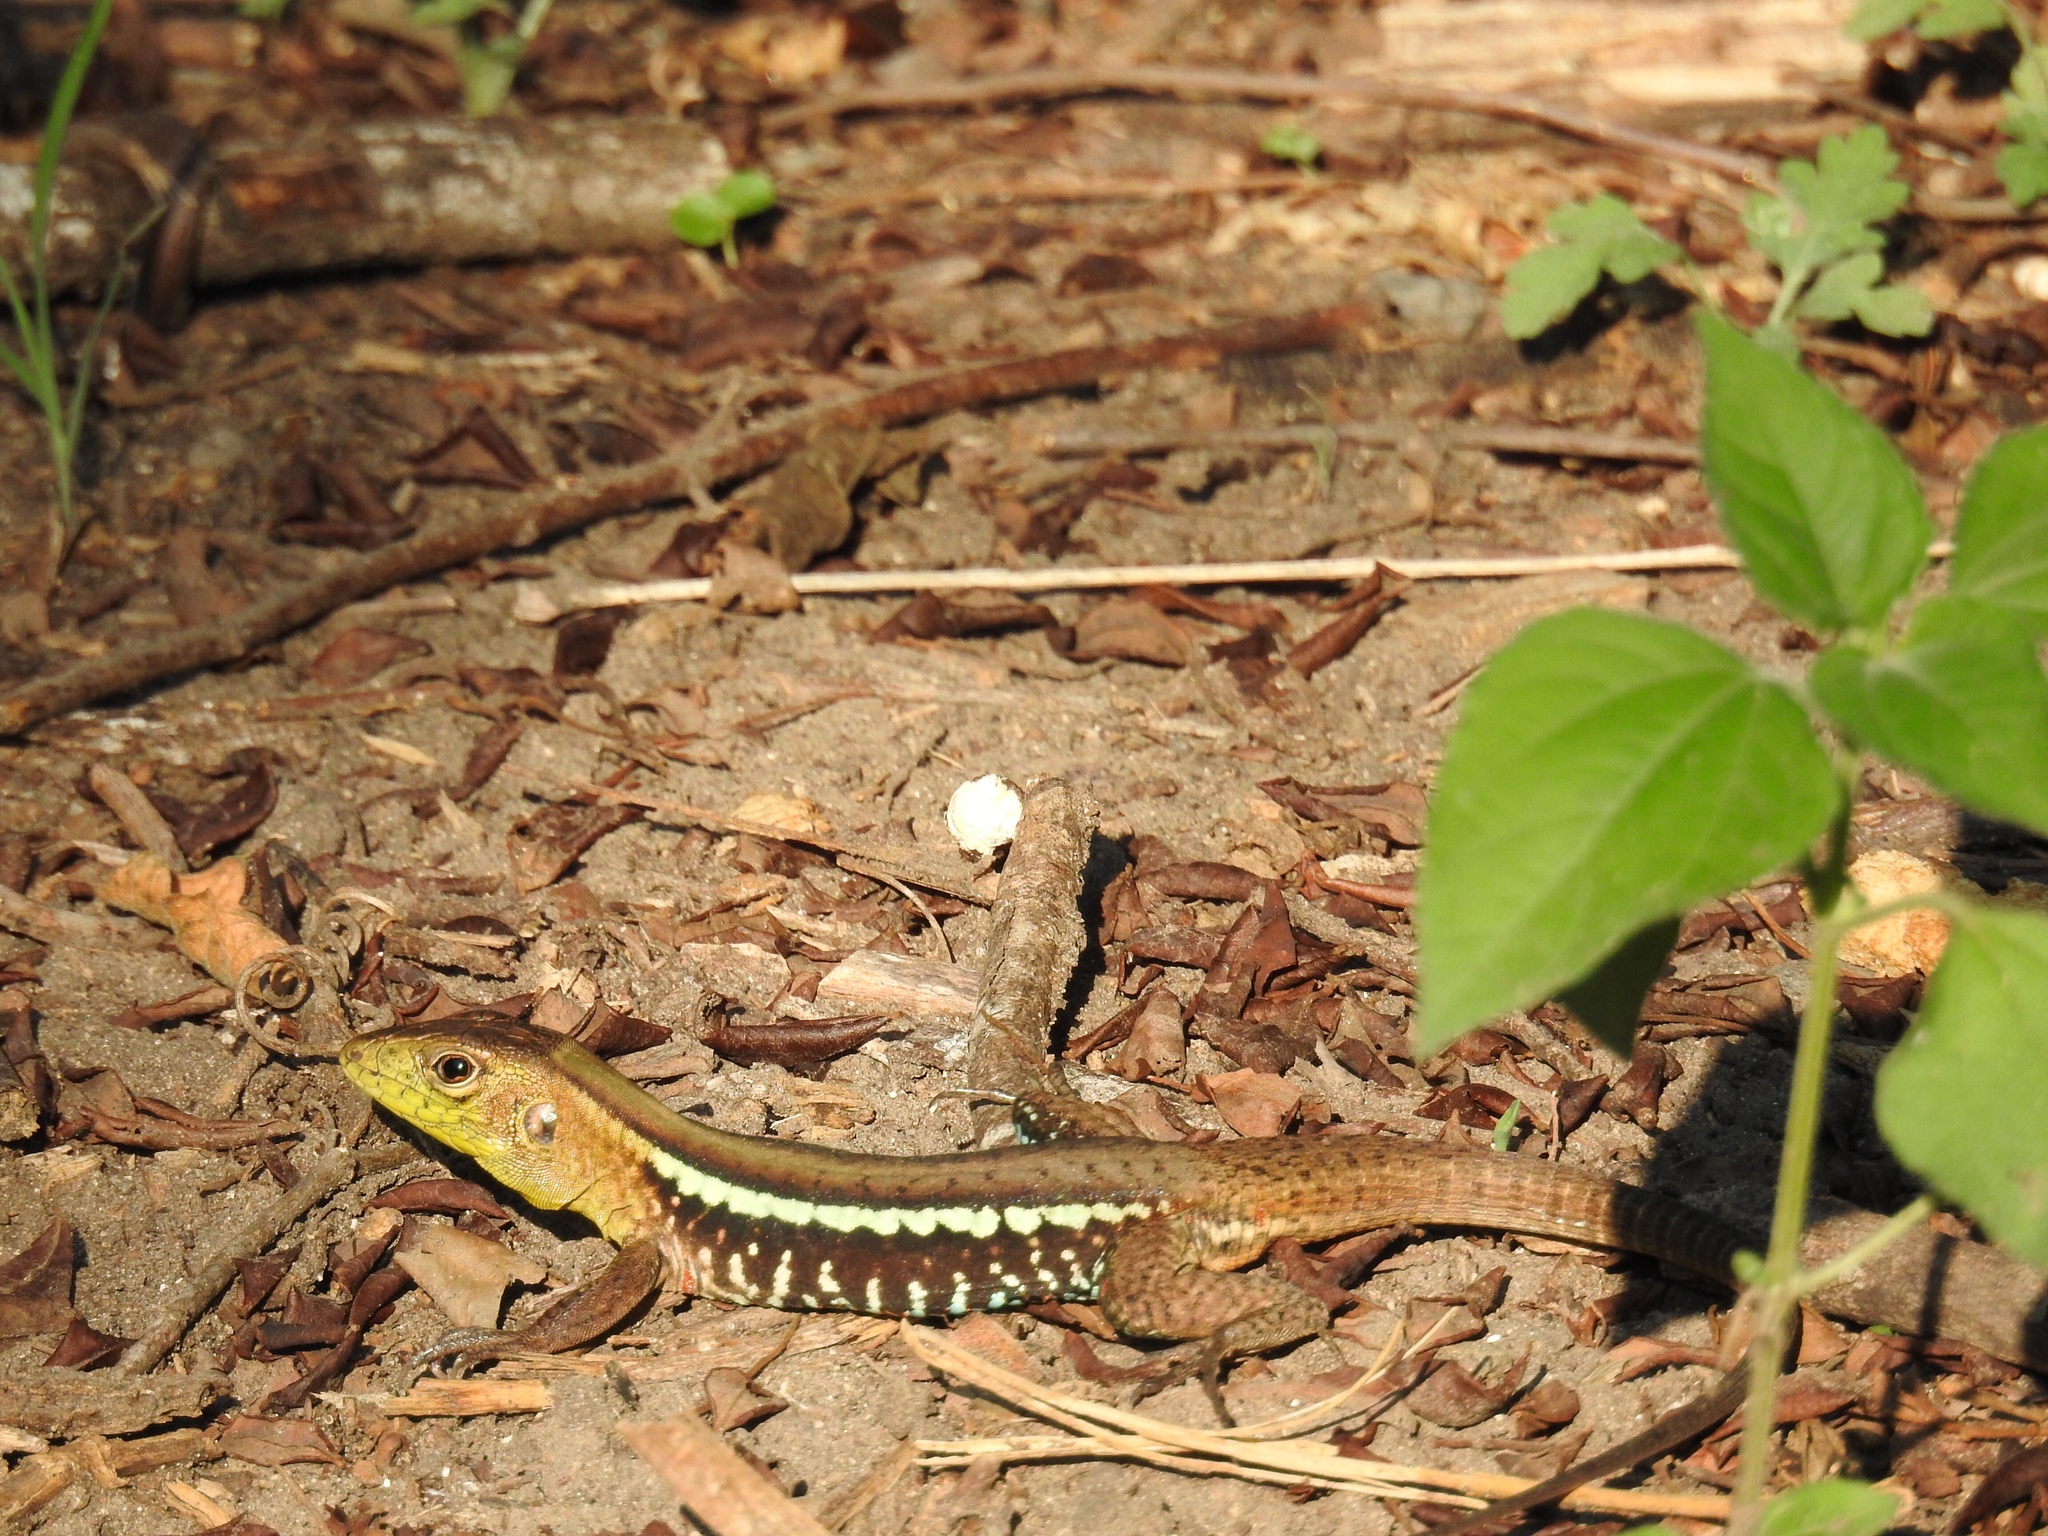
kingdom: Animalia
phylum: Chordata
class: Squamata
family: Teiidae
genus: Holcosus
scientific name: Holcosus undulatus
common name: Rainbow ameiva
